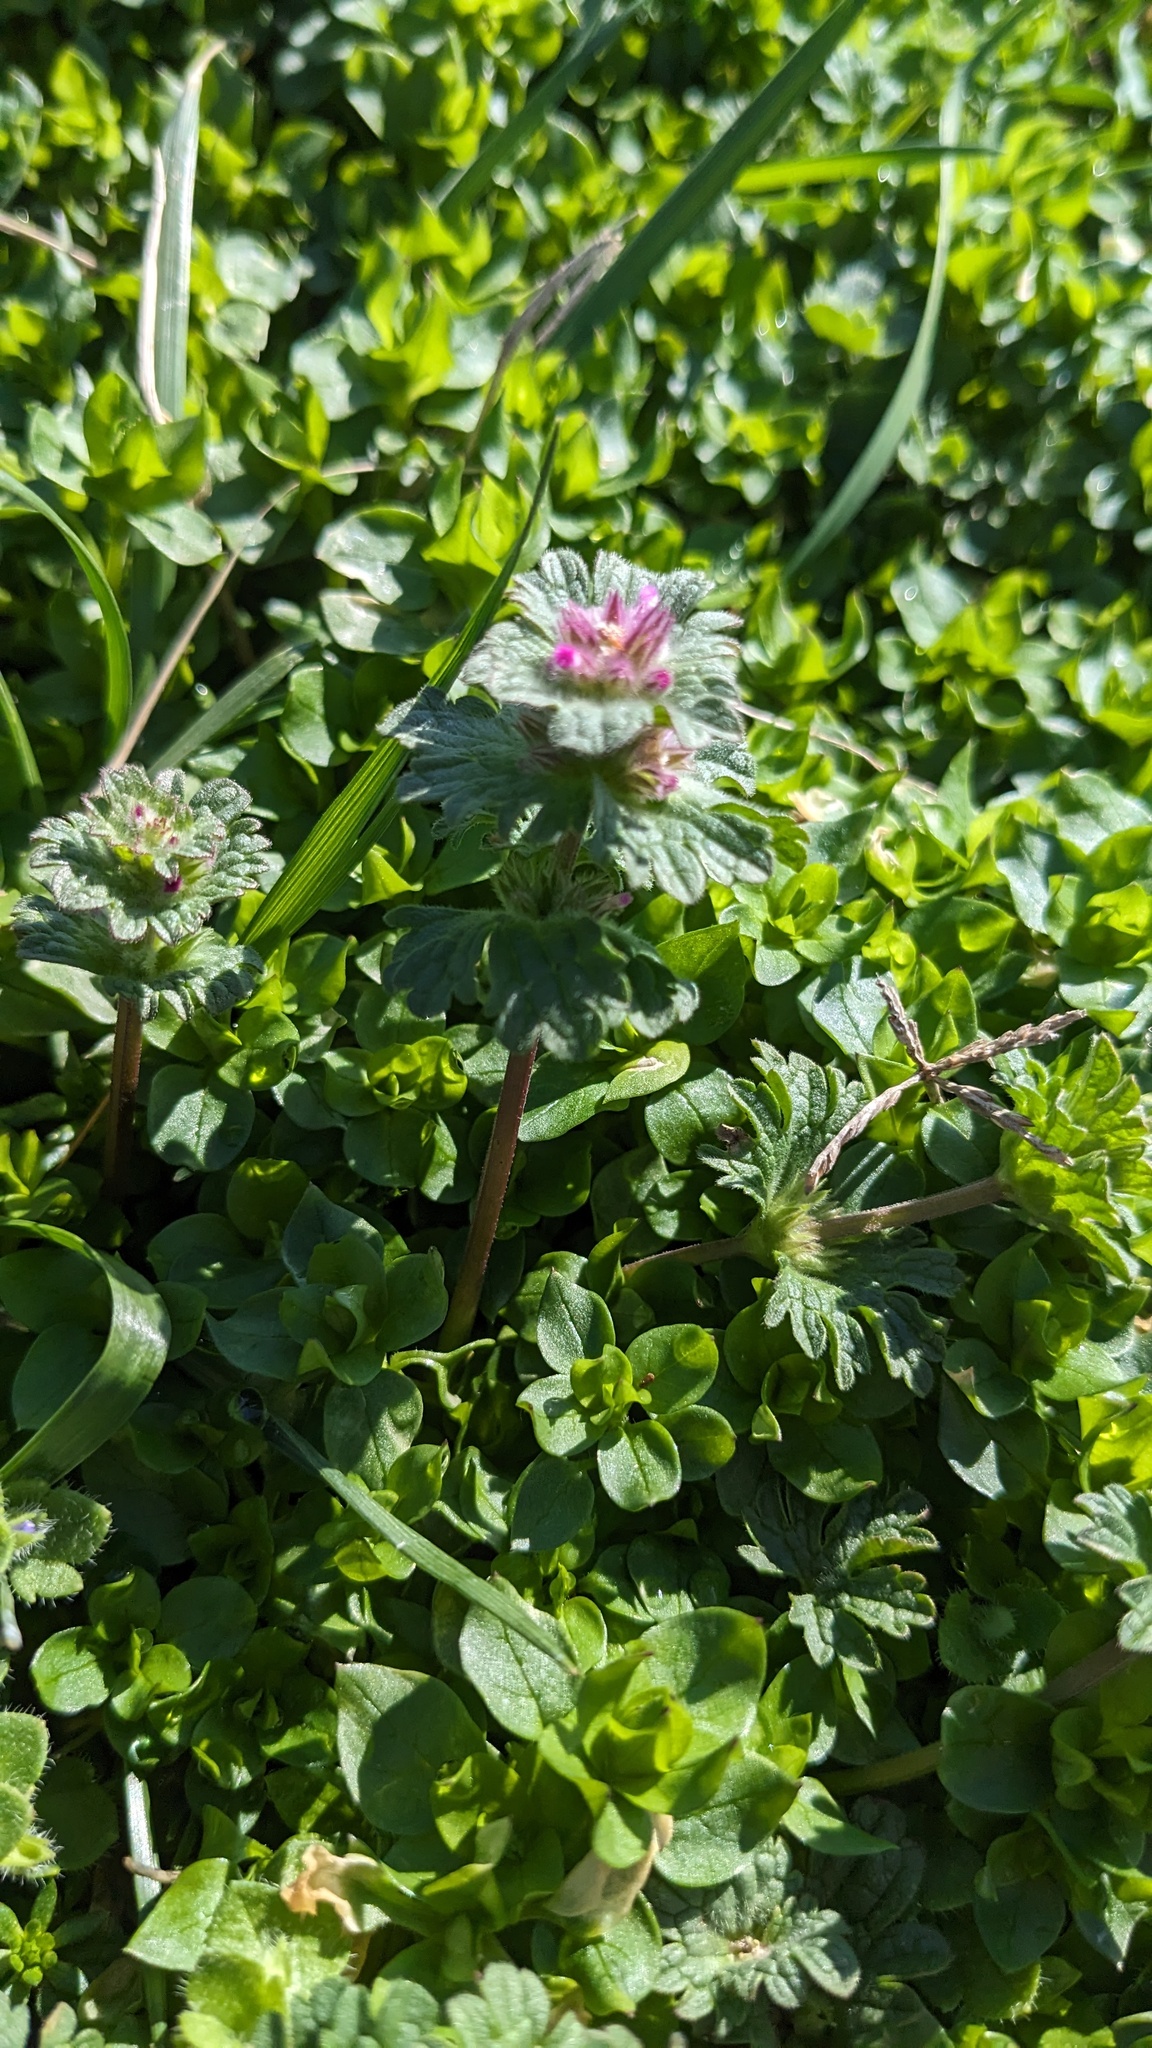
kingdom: Plantae
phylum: Tracheophyta
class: Magnoliopsida
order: Lamiales
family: Lamiaceae
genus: Lamium
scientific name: Lamium amplexicaule
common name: Henbit dead-nettle
